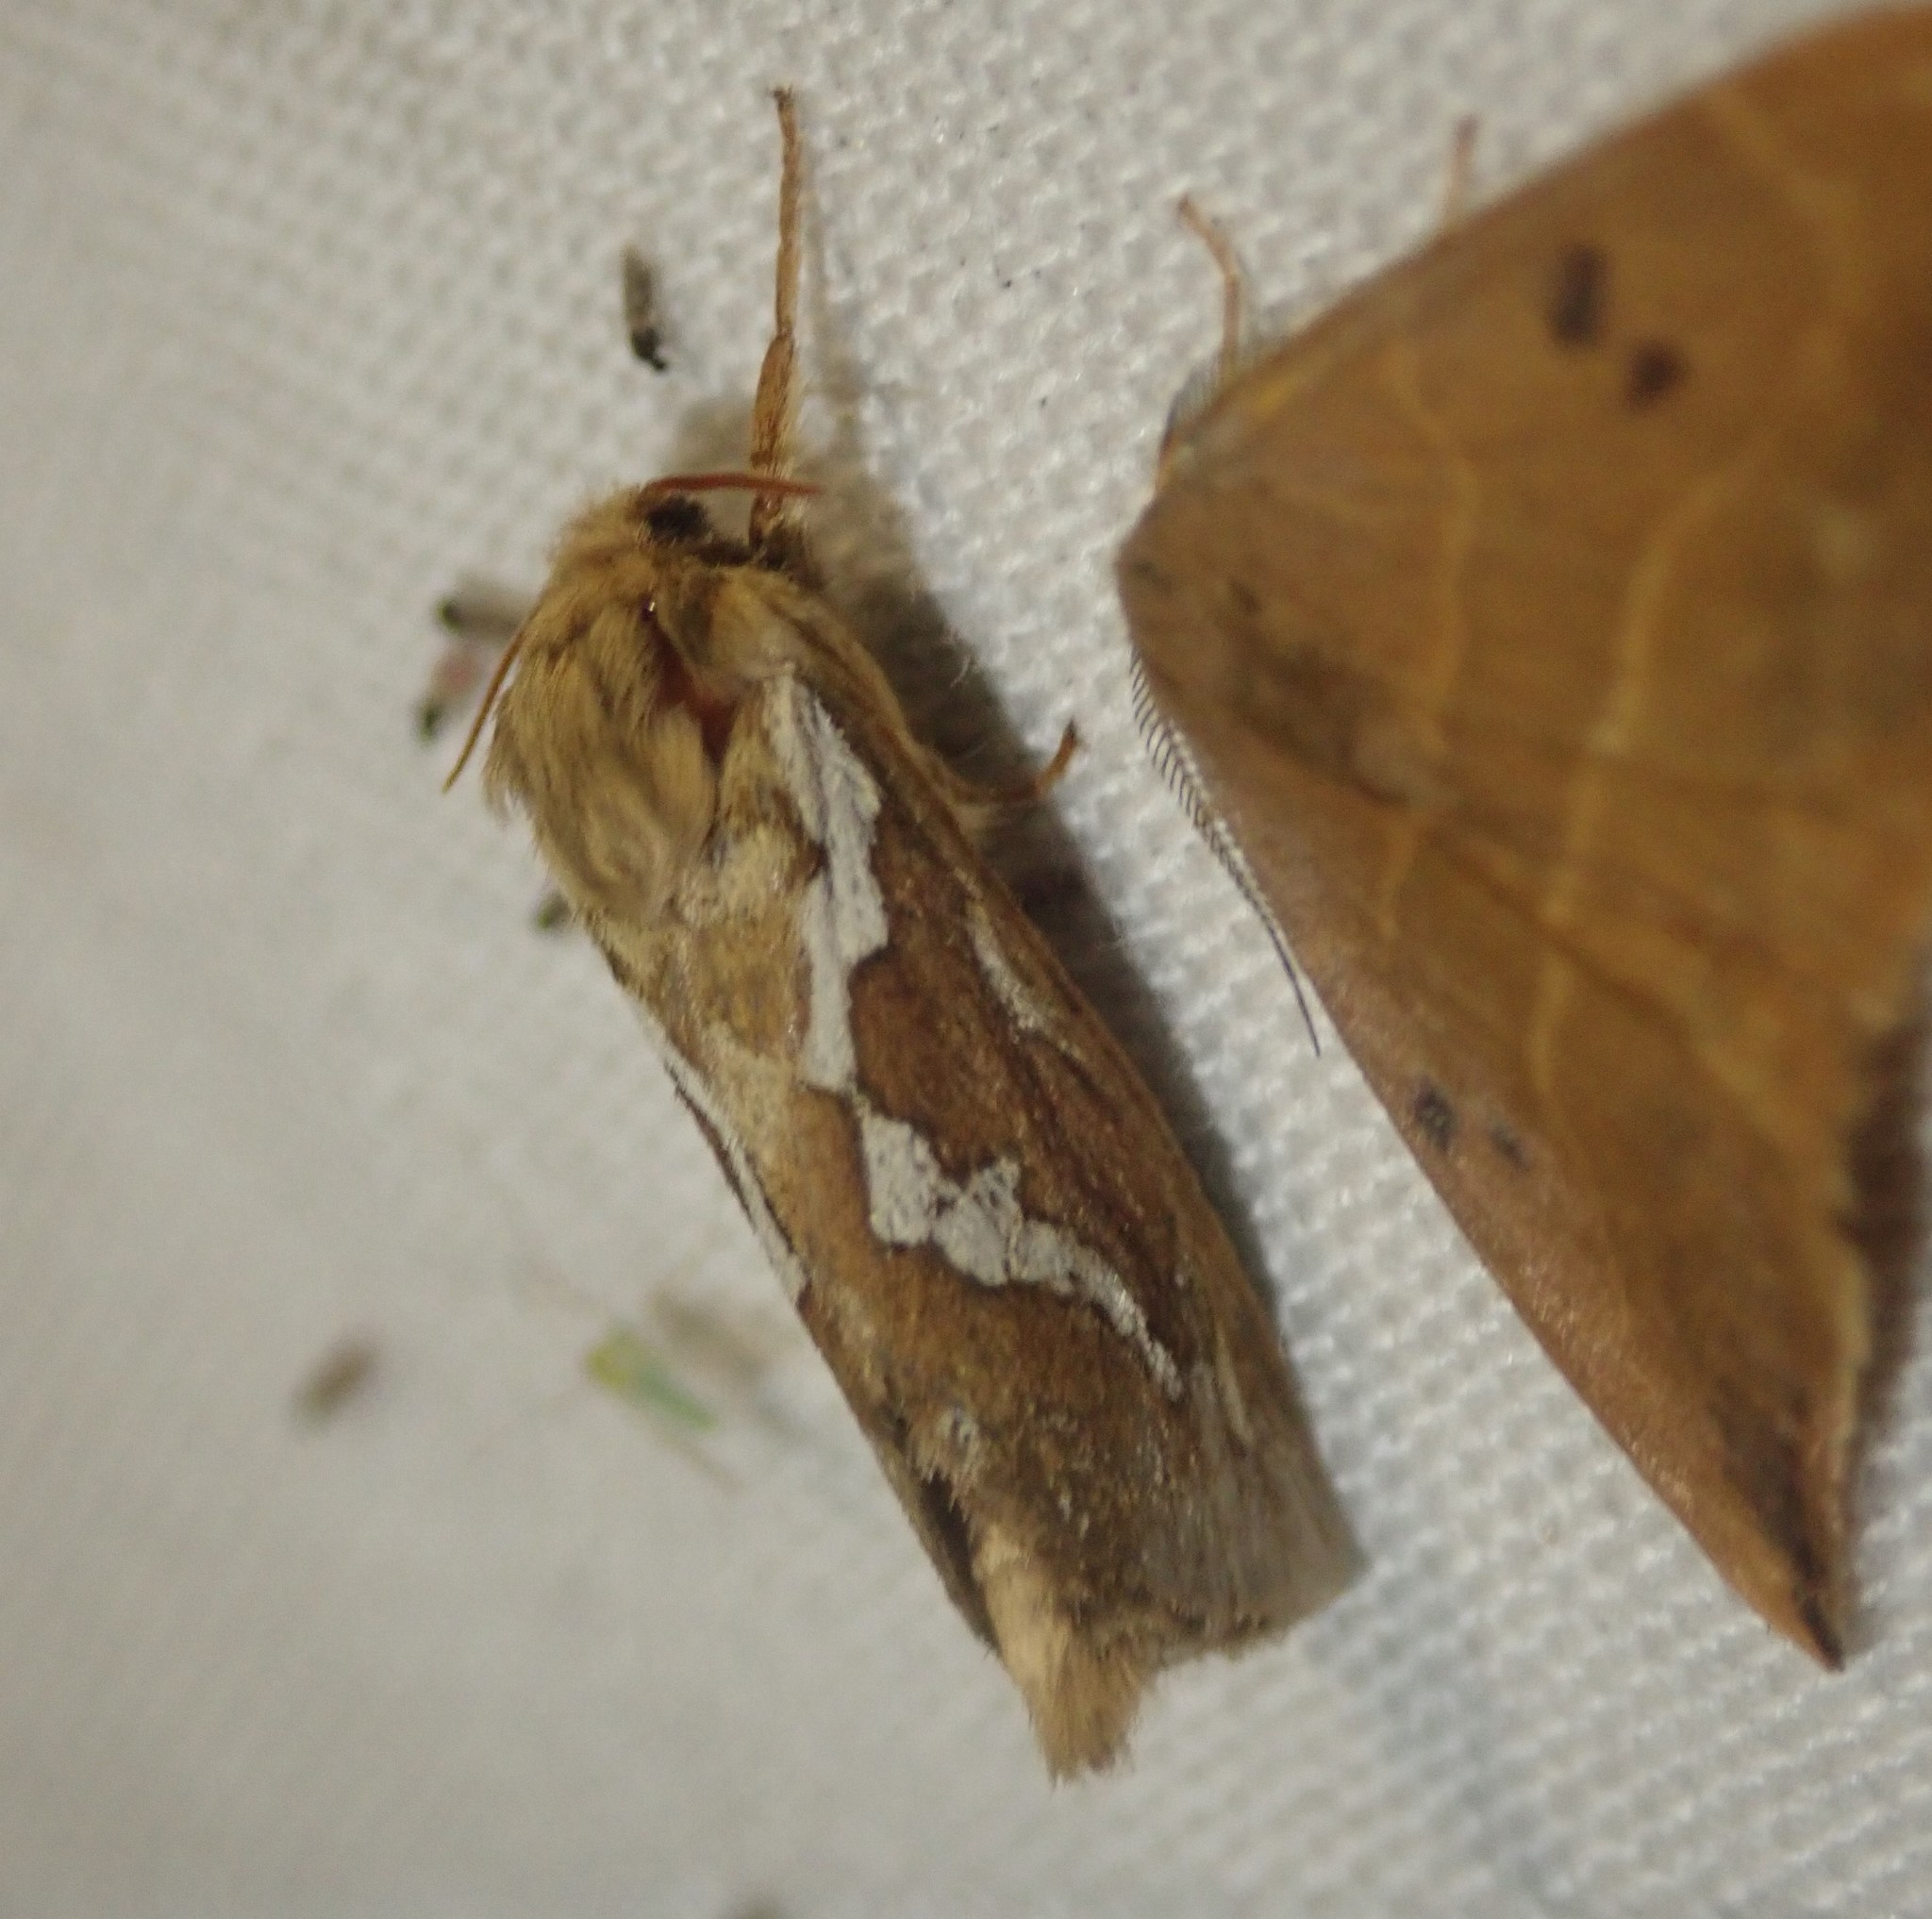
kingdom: Animalia
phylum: Arthropoda
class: Insecta
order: Lepidoptera
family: Hepialidae
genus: Korscheltellus
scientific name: Korscheltellus lupulina
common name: Common swift
